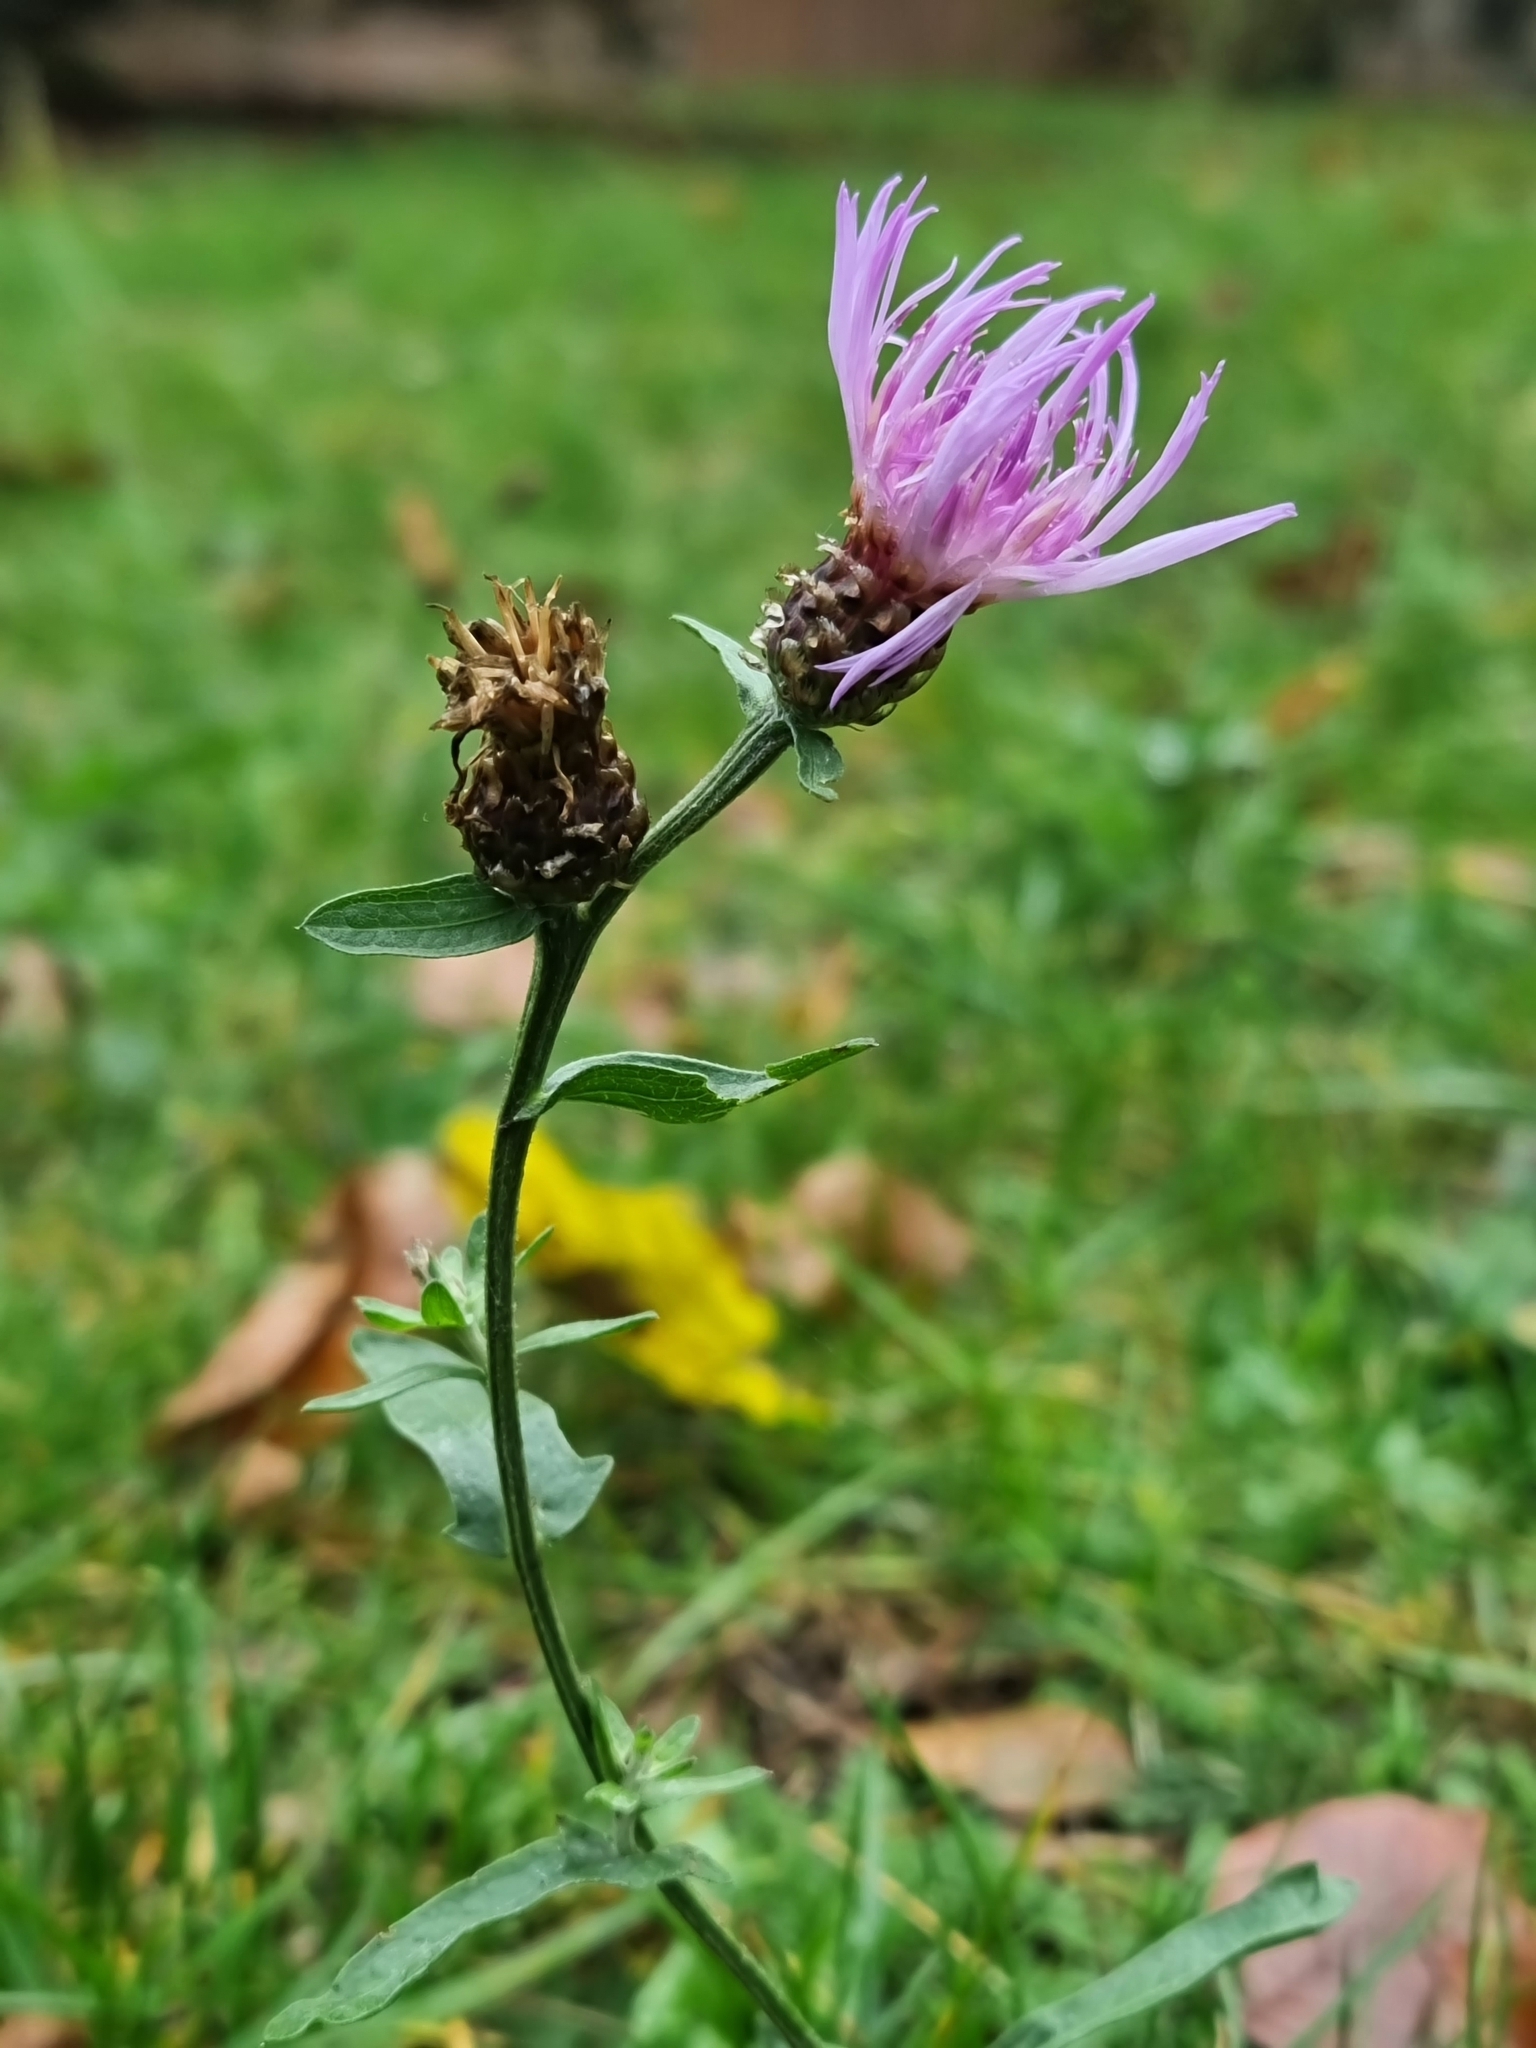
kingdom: Plantae
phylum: Tracheophyta
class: Magnoliopsida
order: Asterales
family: Asteraceae
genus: Centaurea
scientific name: Centaurea jacea
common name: Brown knapweed
